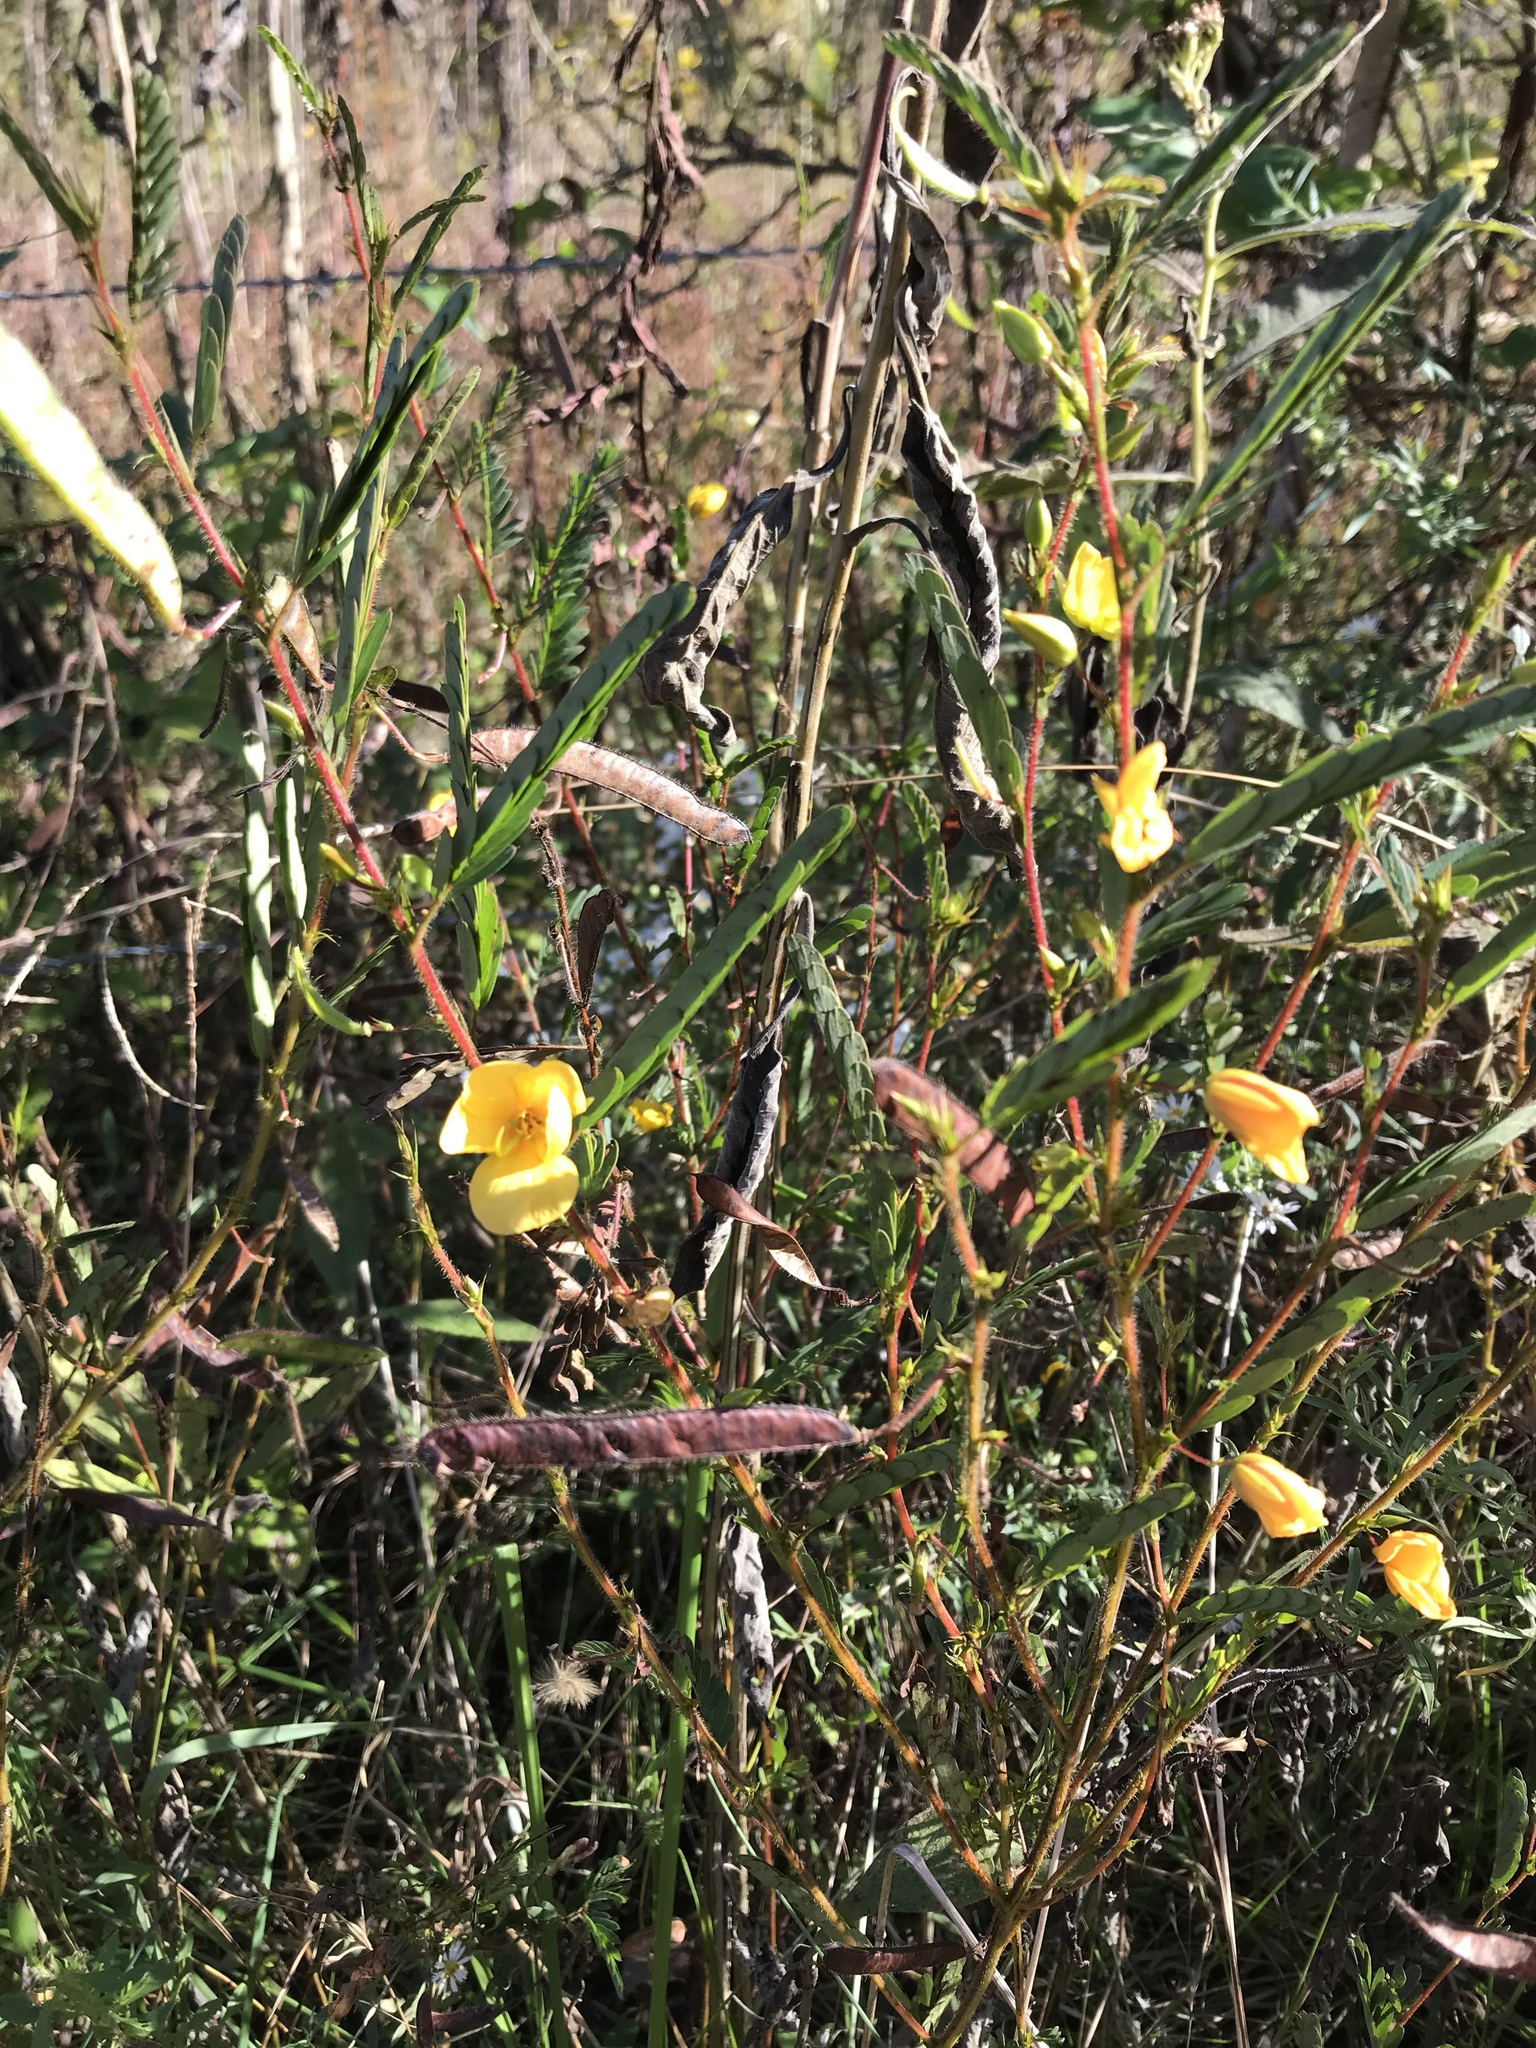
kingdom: Plantae
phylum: Tracheophyta
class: Magnoliopsida
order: Fabales
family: Fabaceae
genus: Chamaecrista
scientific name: Chamaecrista fasciculata
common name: Golden cassia
